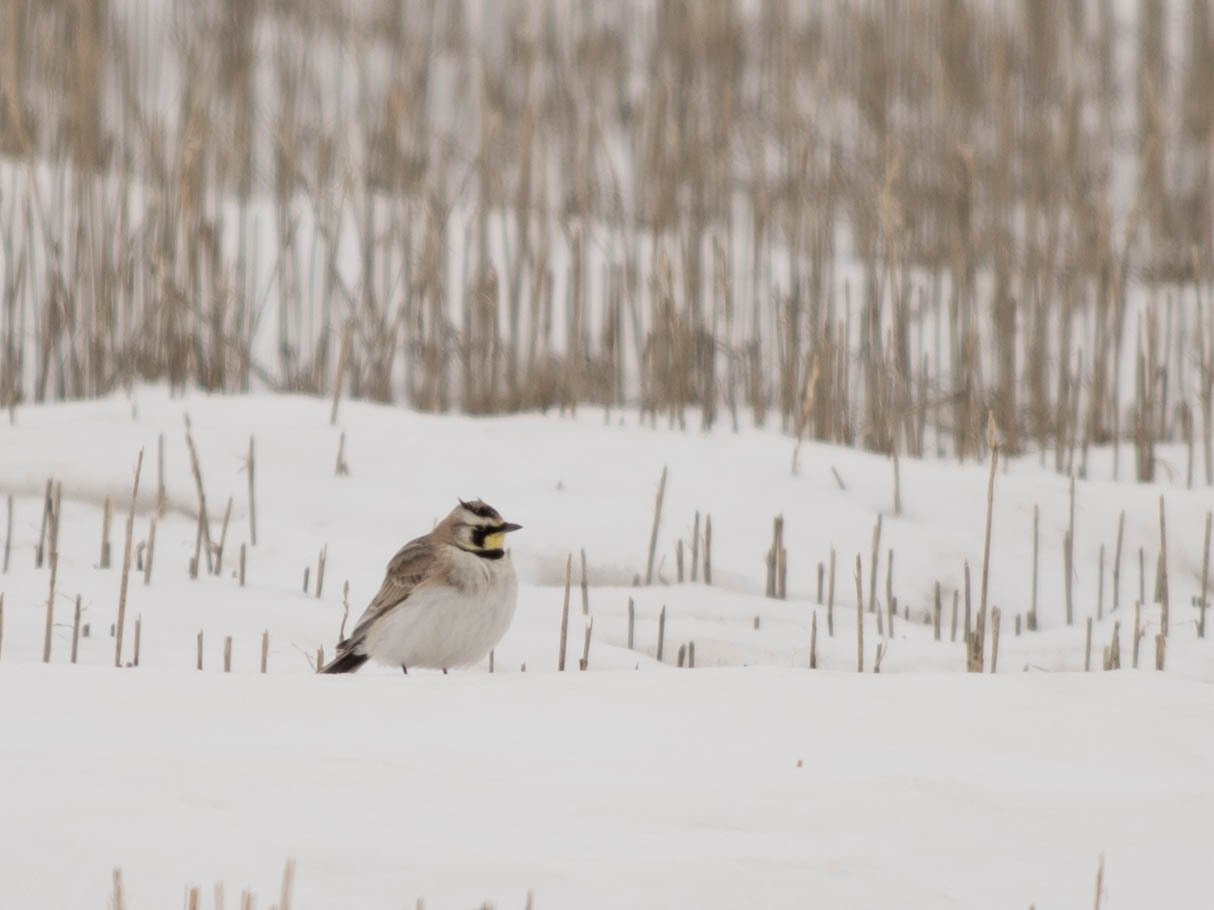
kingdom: Animalia
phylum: Chordata
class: Aves
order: Passeriformes
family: Alaudidae
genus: Eremophila
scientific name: Eremophila alpestris
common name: Horned lark
